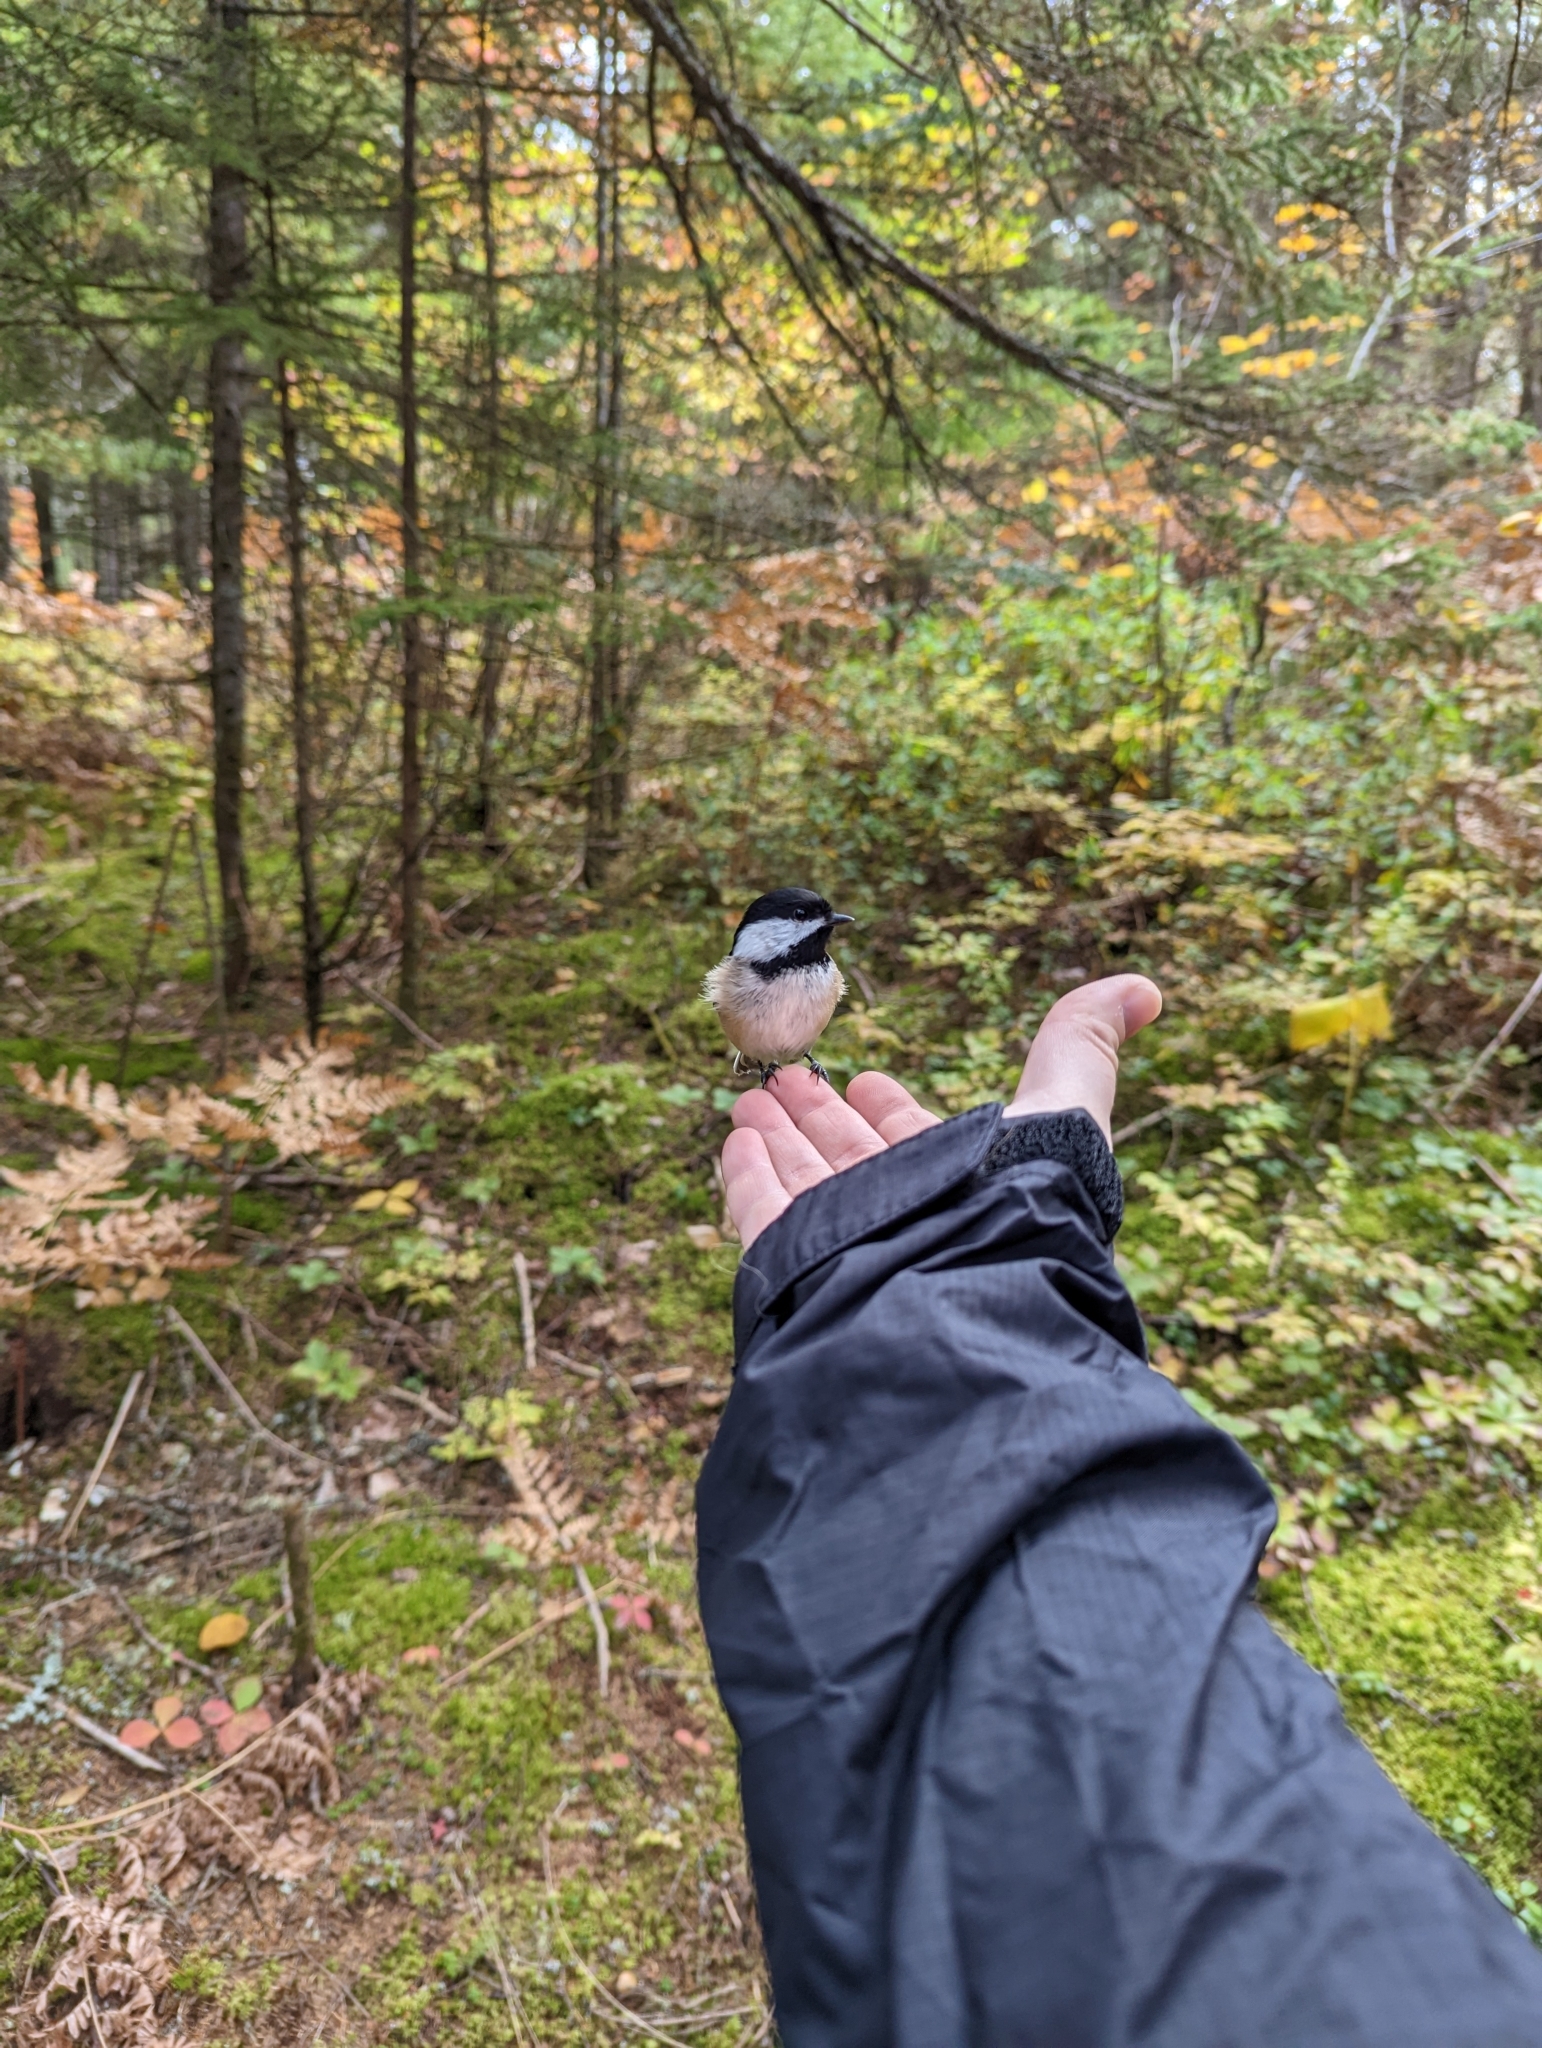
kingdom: Animalia
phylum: Chordata
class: Aves
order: Passeriformes
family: Paridae
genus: Poecile
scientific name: Poecile atricapillus
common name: Black-capped chickadee
